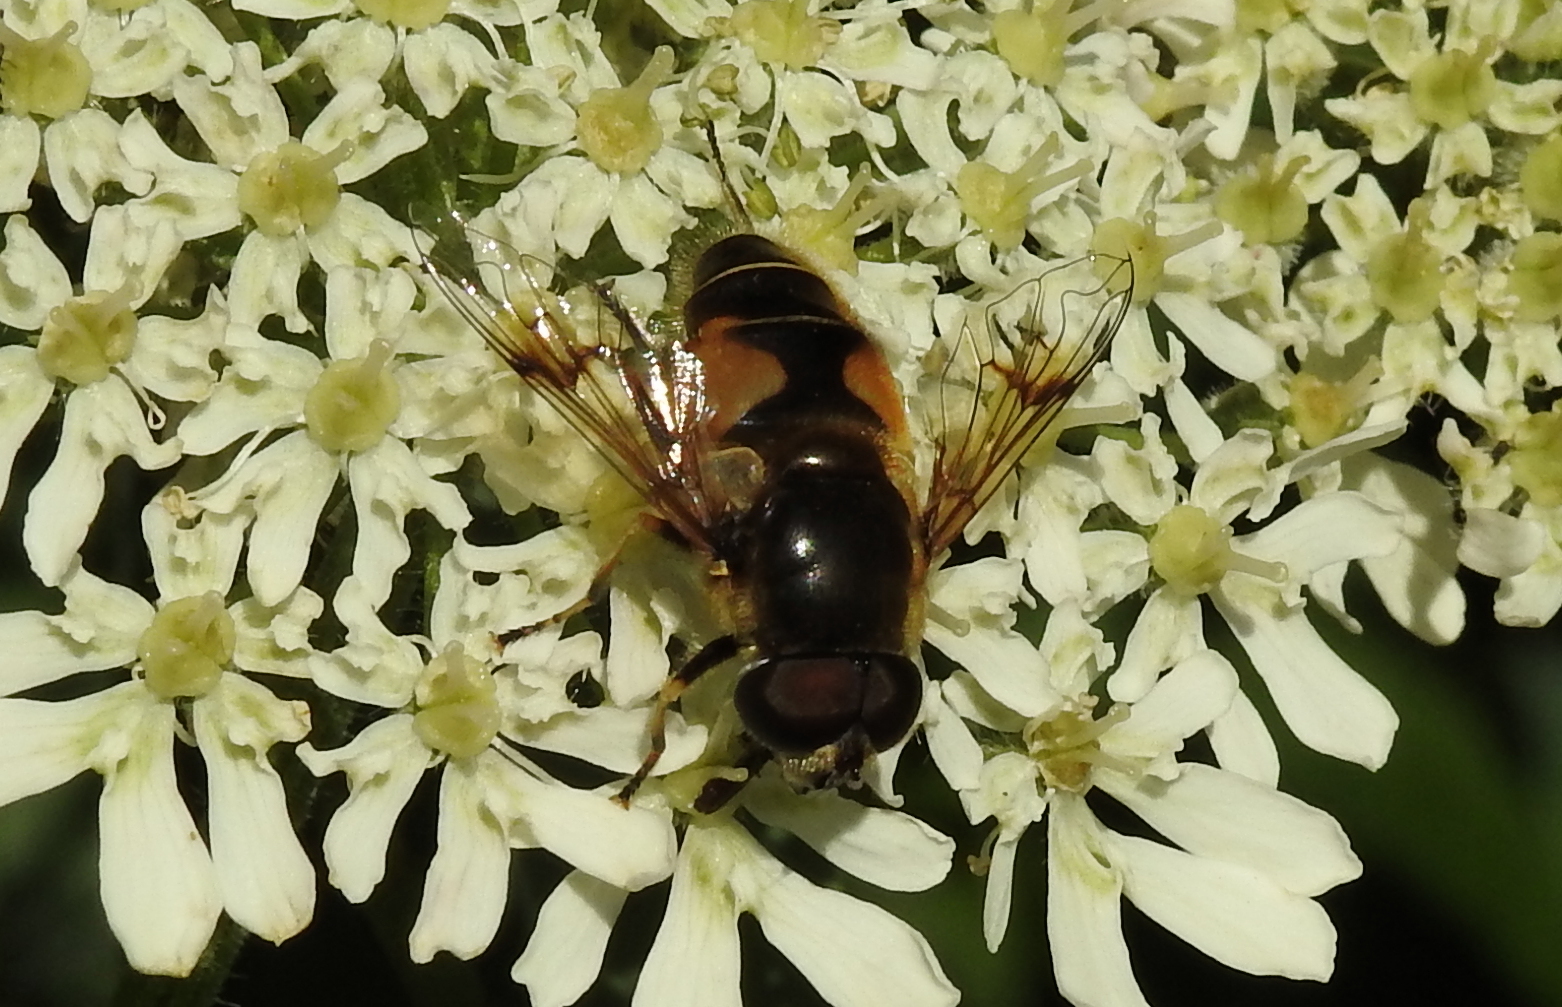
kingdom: Animalia
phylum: Arthropoda
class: Insecta
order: Diptera
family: Syrphidae
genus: Cheilosia
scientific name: Cheilosia morio
